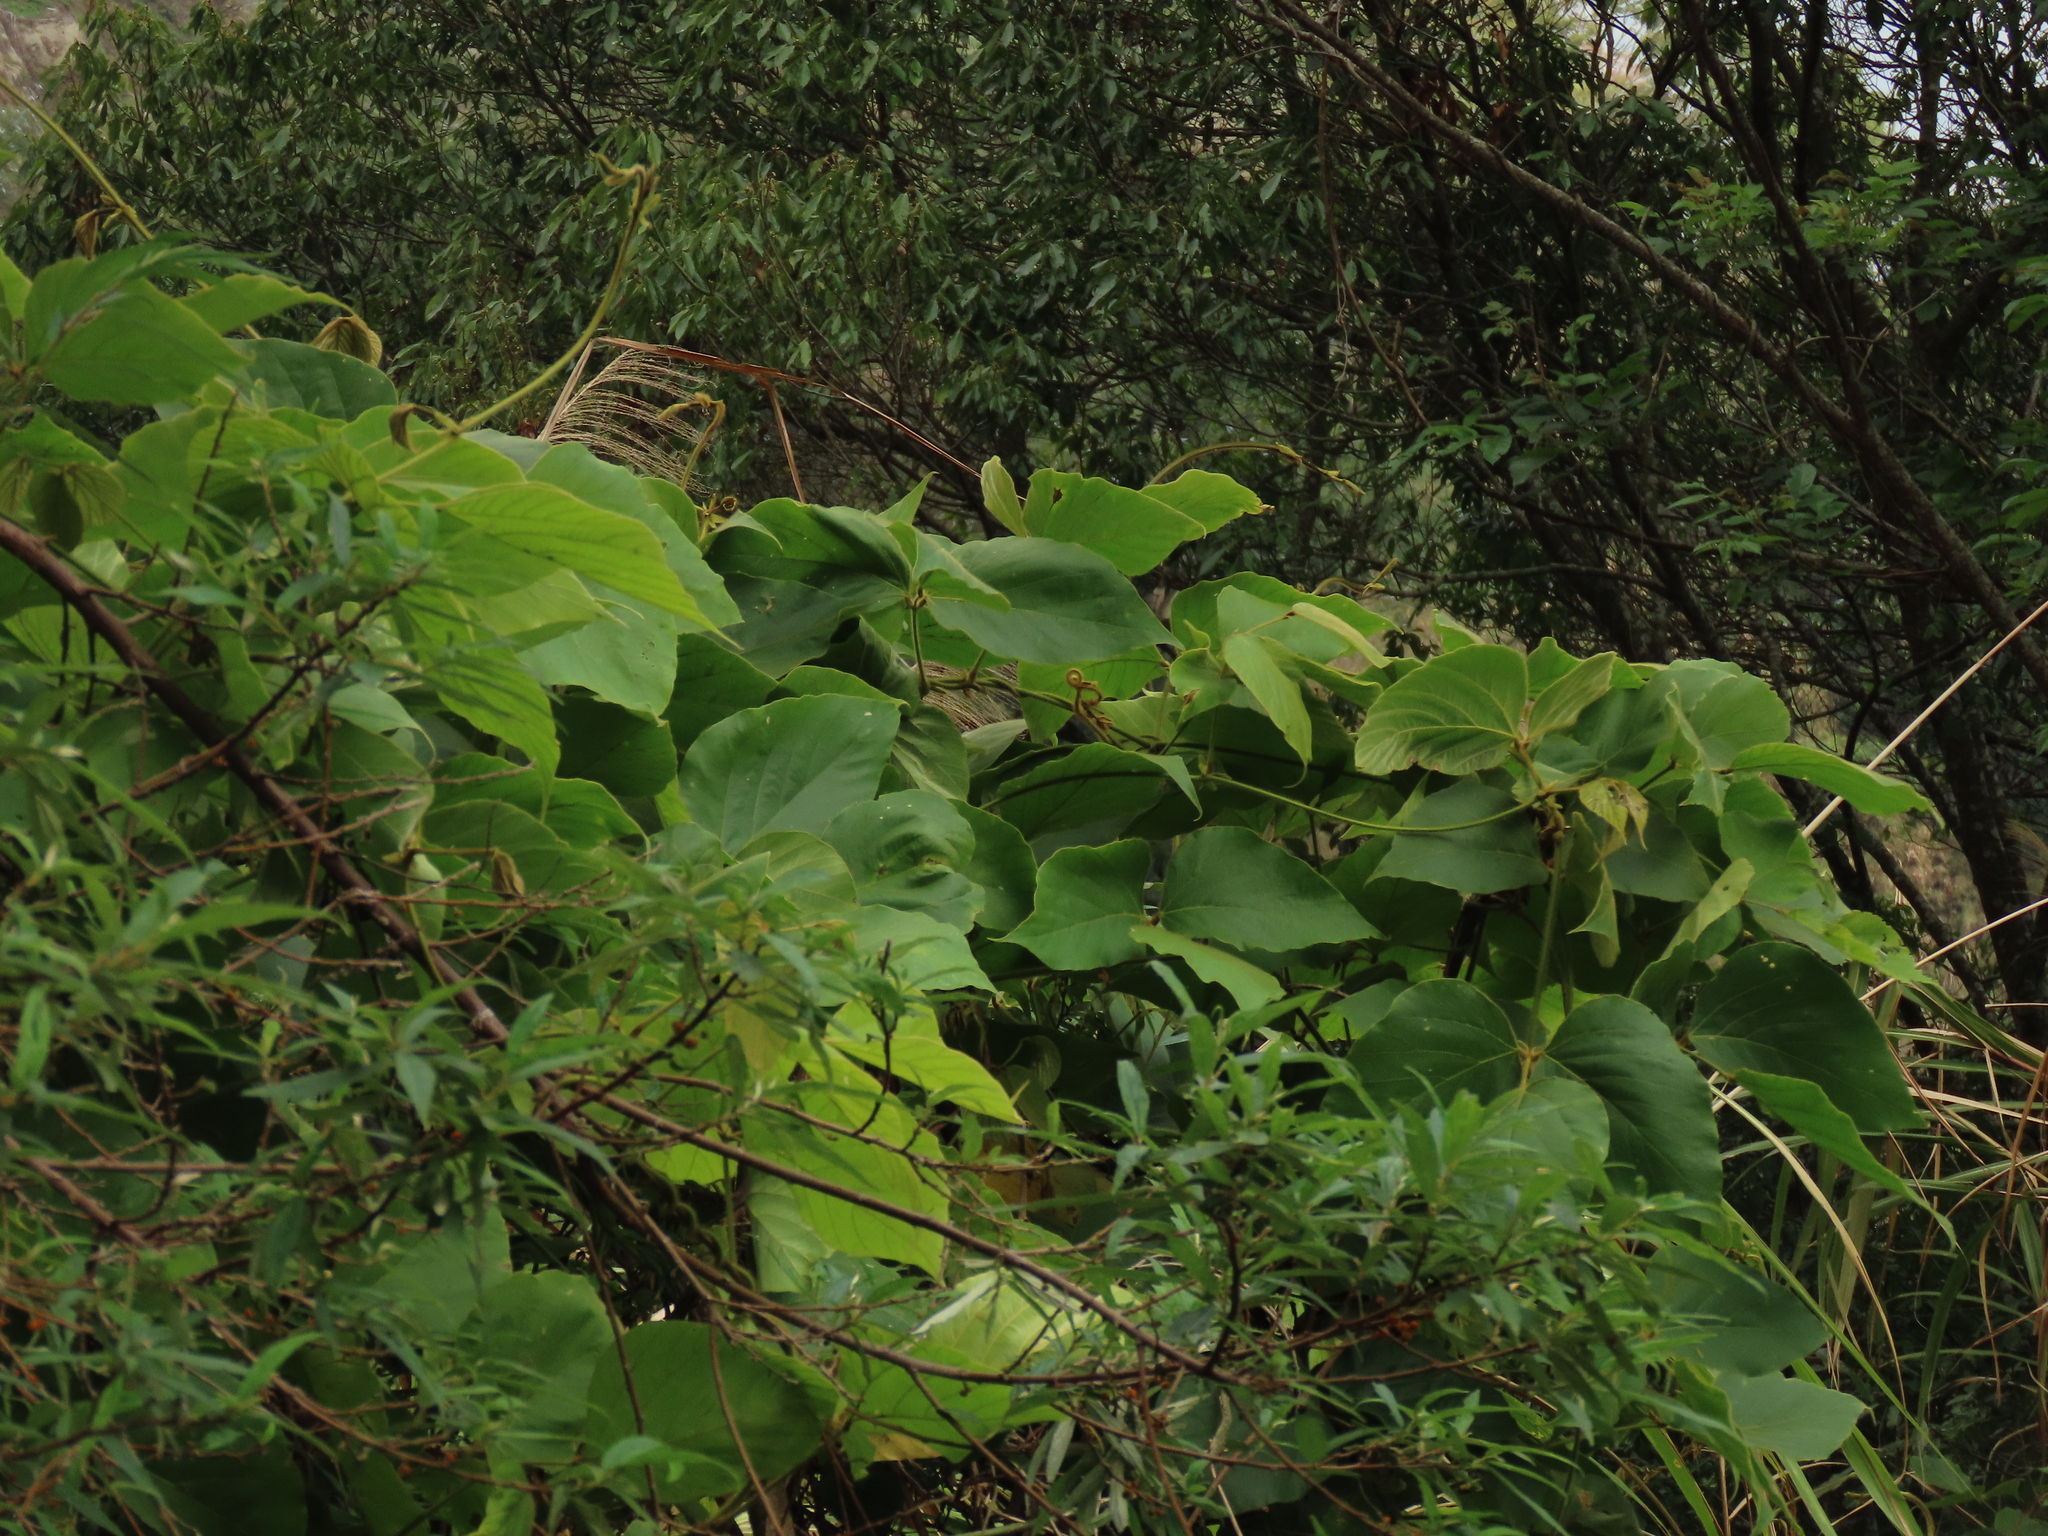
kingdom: Plantae
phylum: Tracheophyta
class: Magnoliopsida
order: Fabales
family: Fabaceae
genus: Pueraria
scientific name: Pueraria montana
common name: Kudzu
